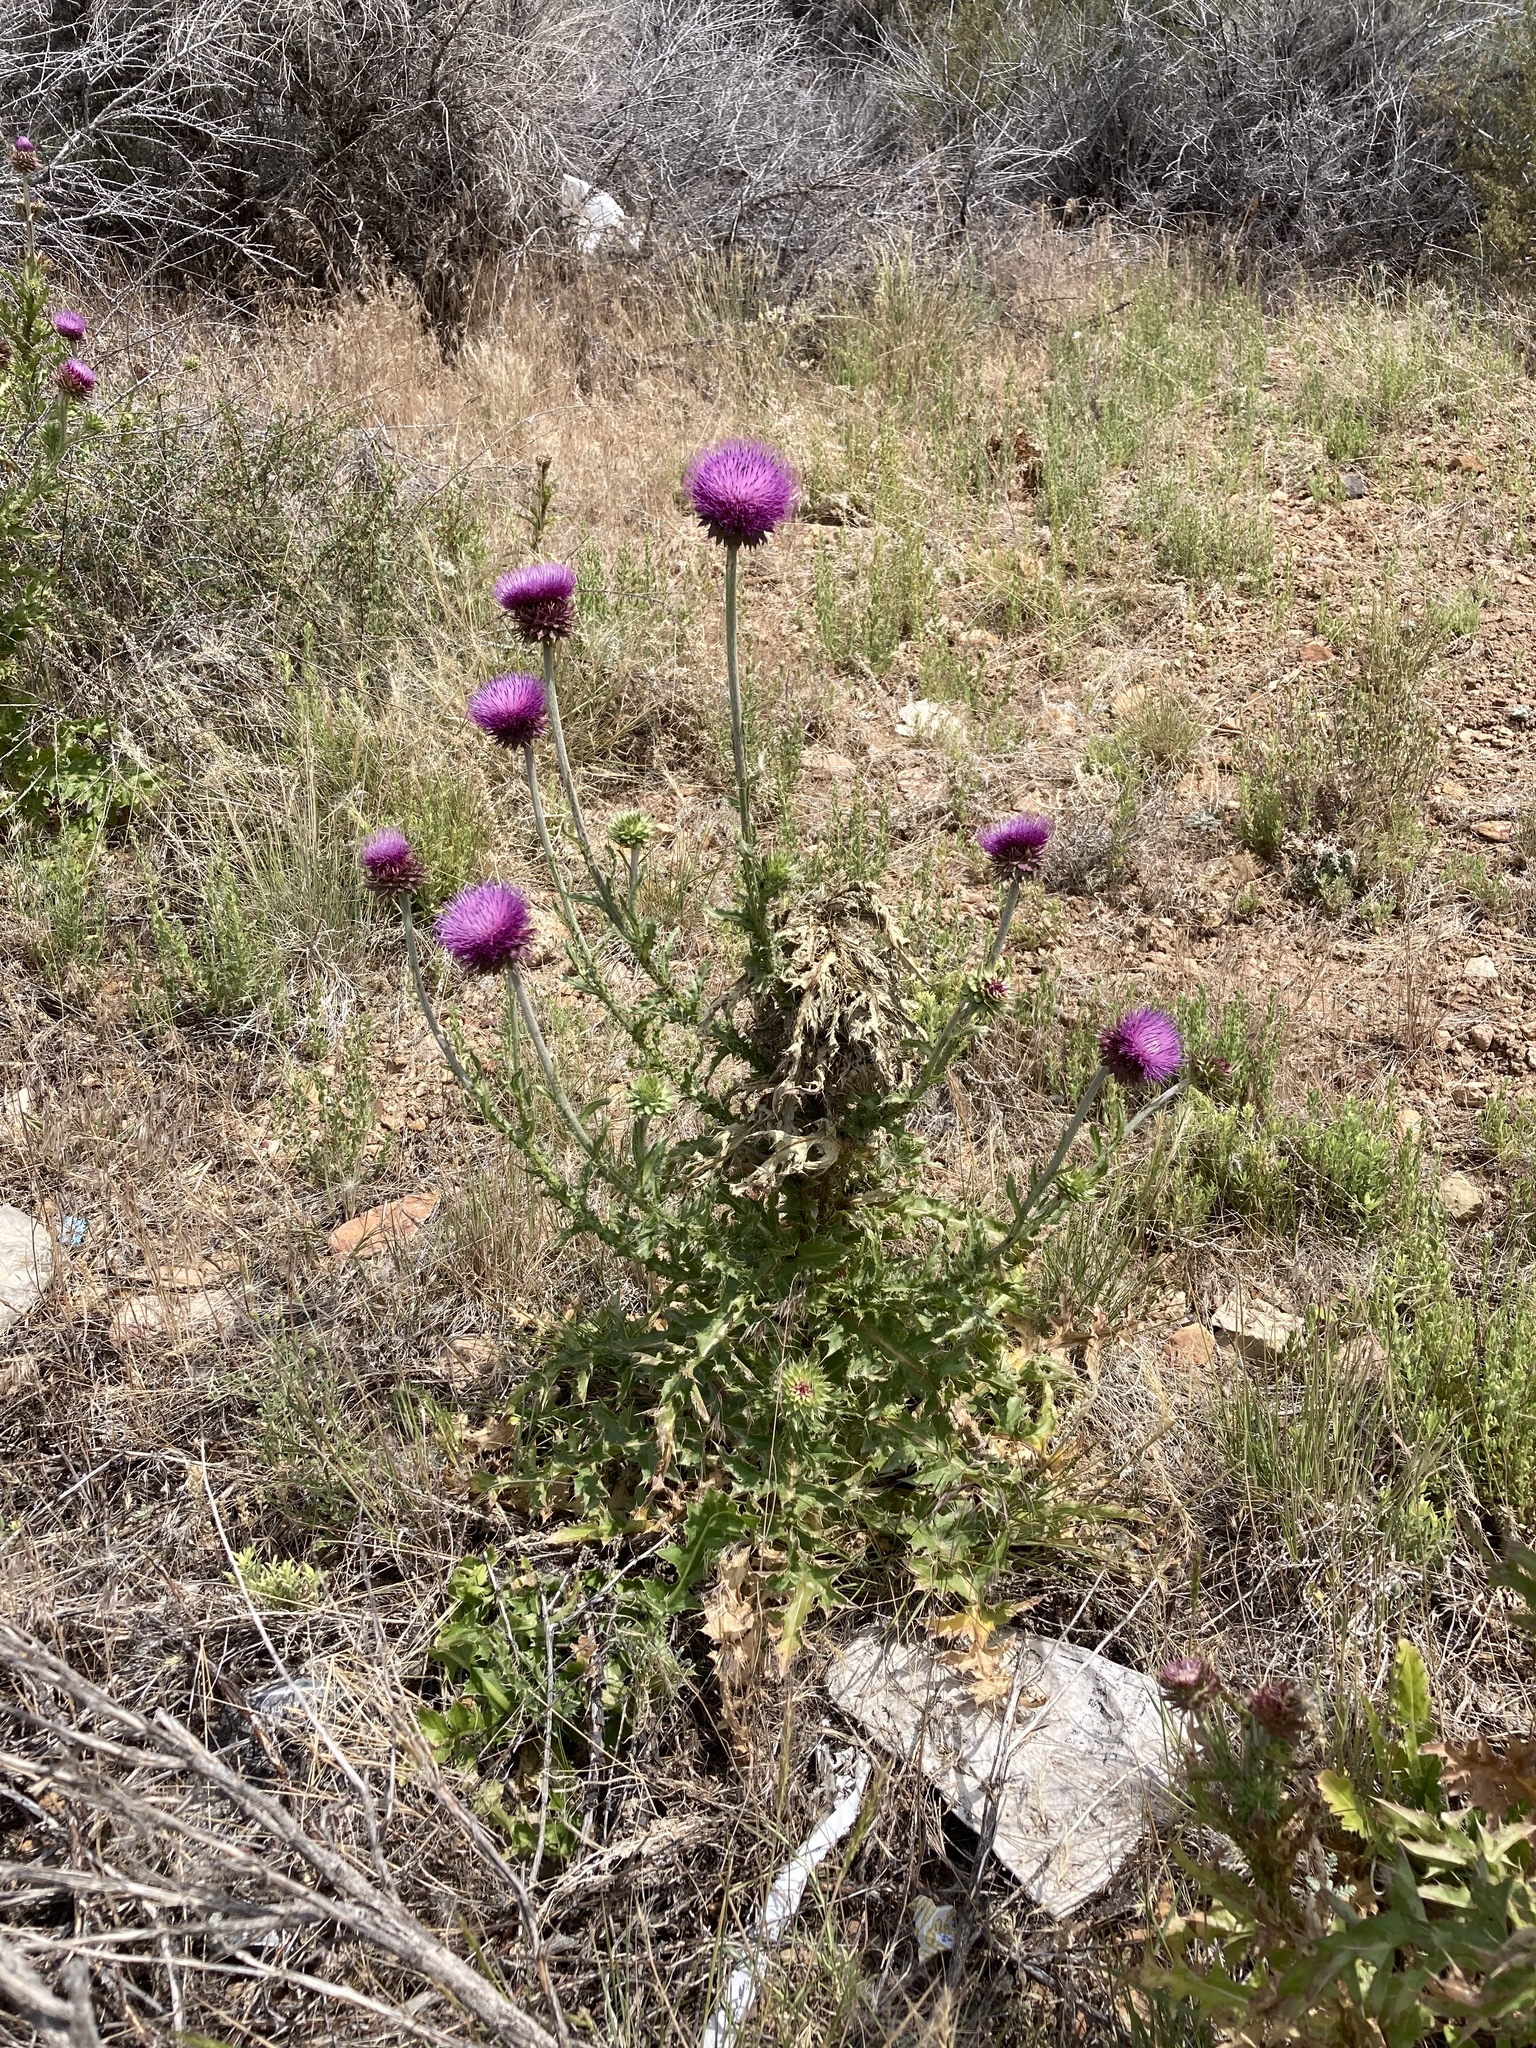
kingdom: Plantae
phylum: Tracheophyta
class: Magnoliopsida
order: Asterales
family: Asteraceae
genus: Carduus
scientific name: Carduus nutans
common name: Musk thistle
